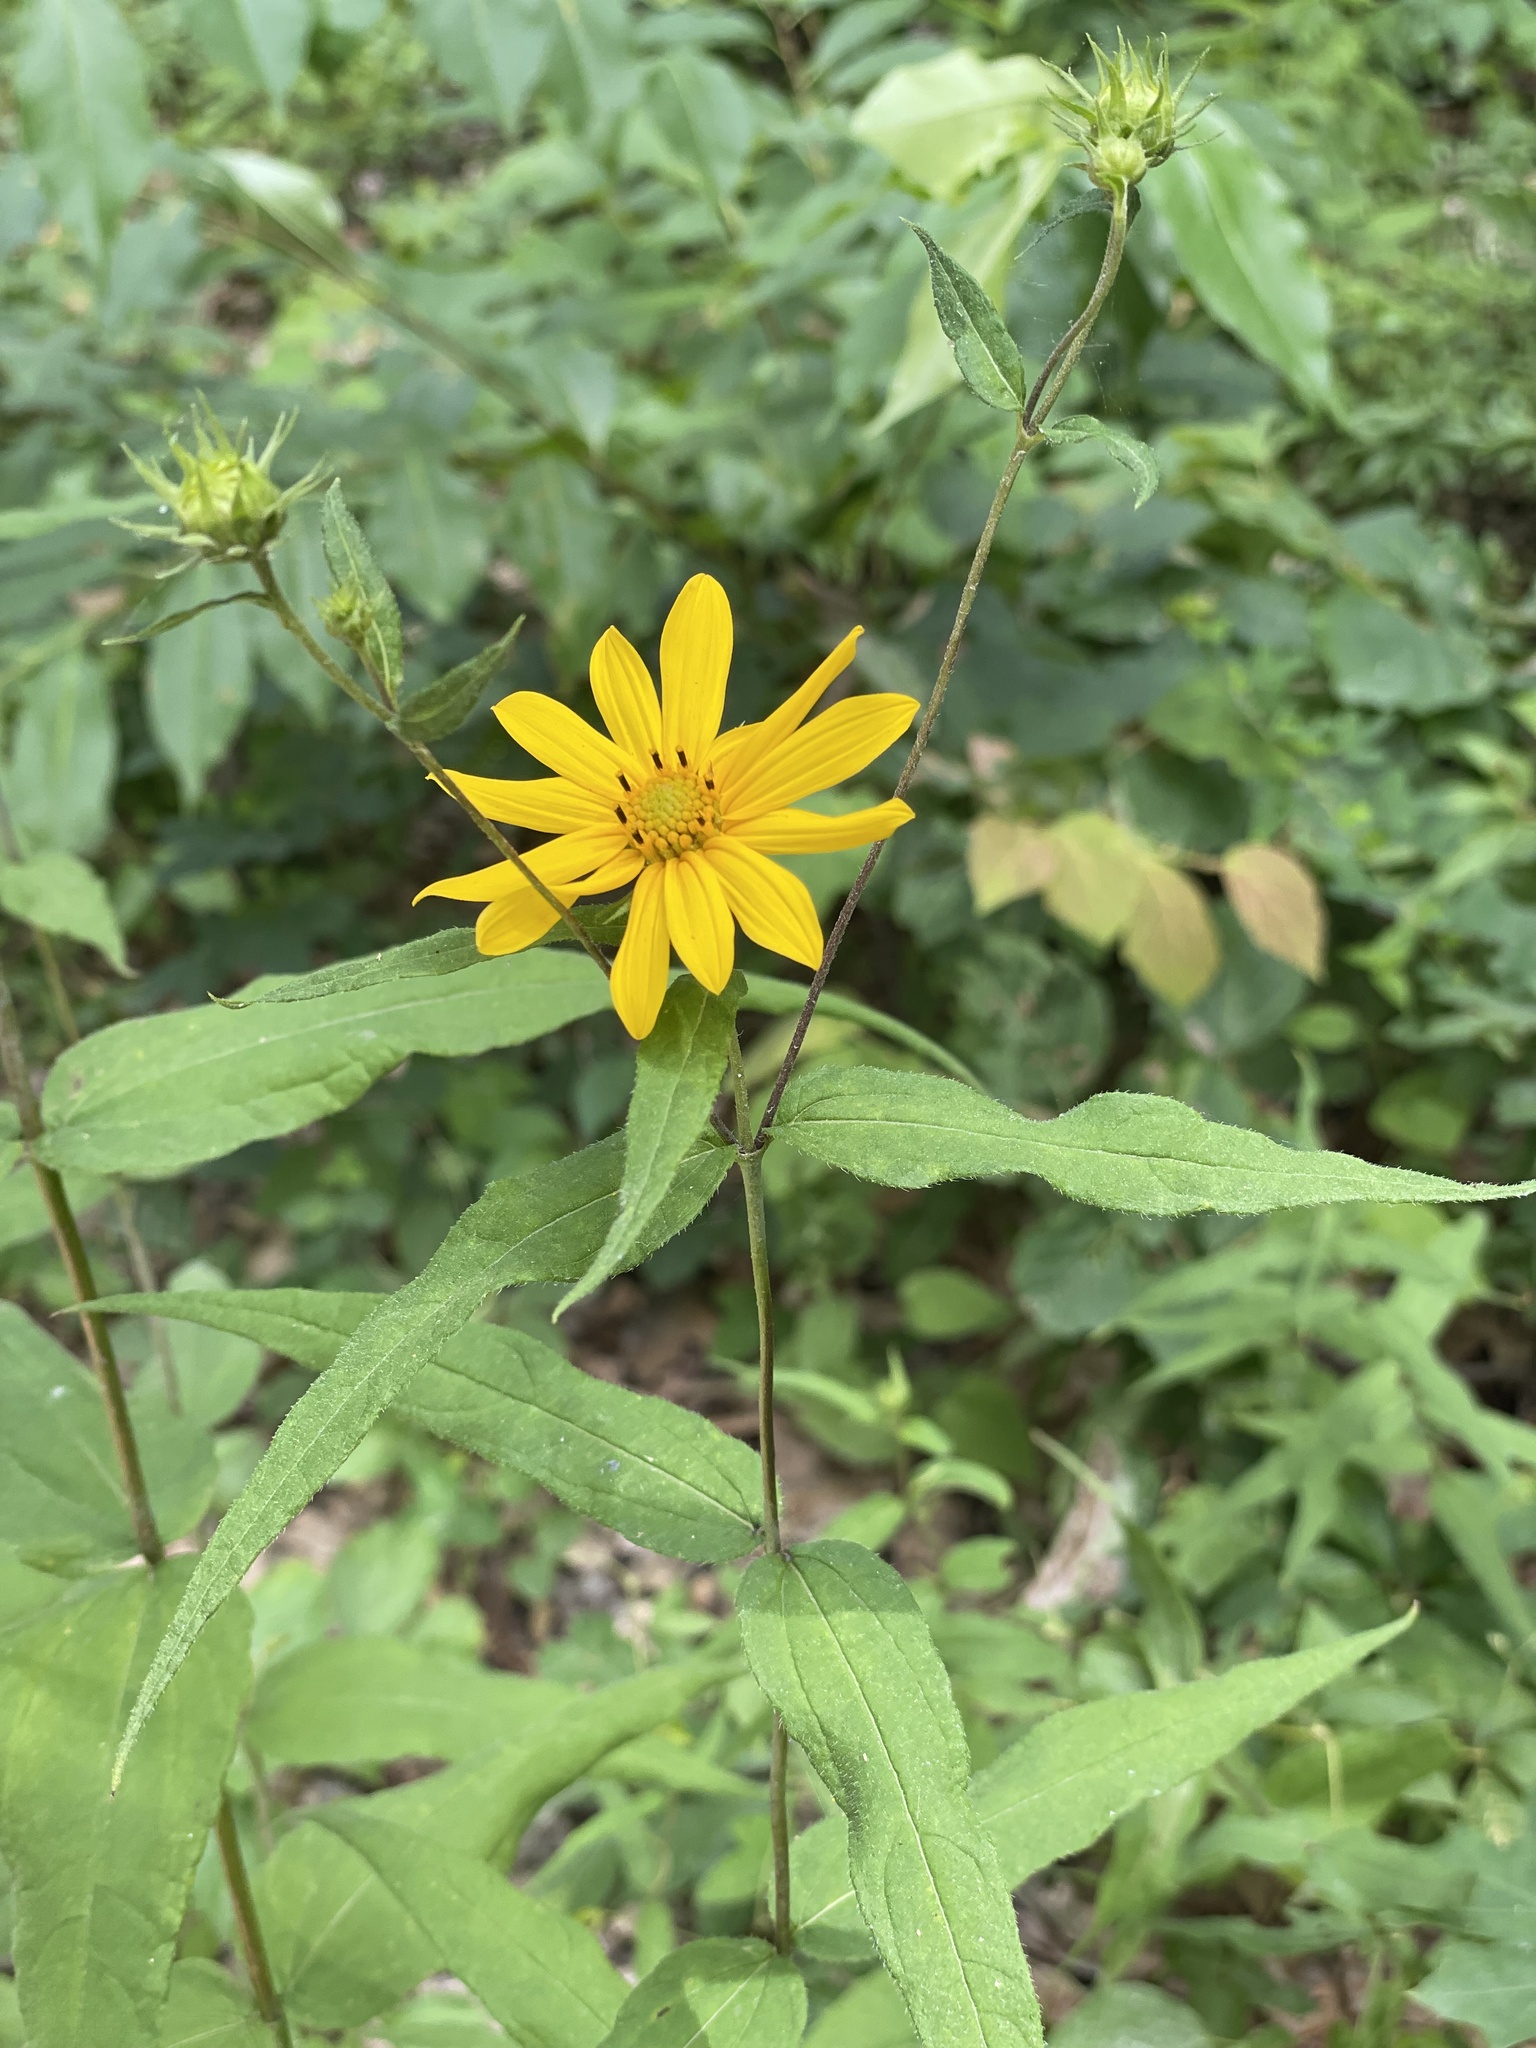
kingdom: Plantae
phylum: Tracheophyta
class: Magnoliopsida
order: Asterales
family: Asteraceae
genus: Helianthus
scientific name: Helianthus divaricatus
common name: Divergent sunflower
